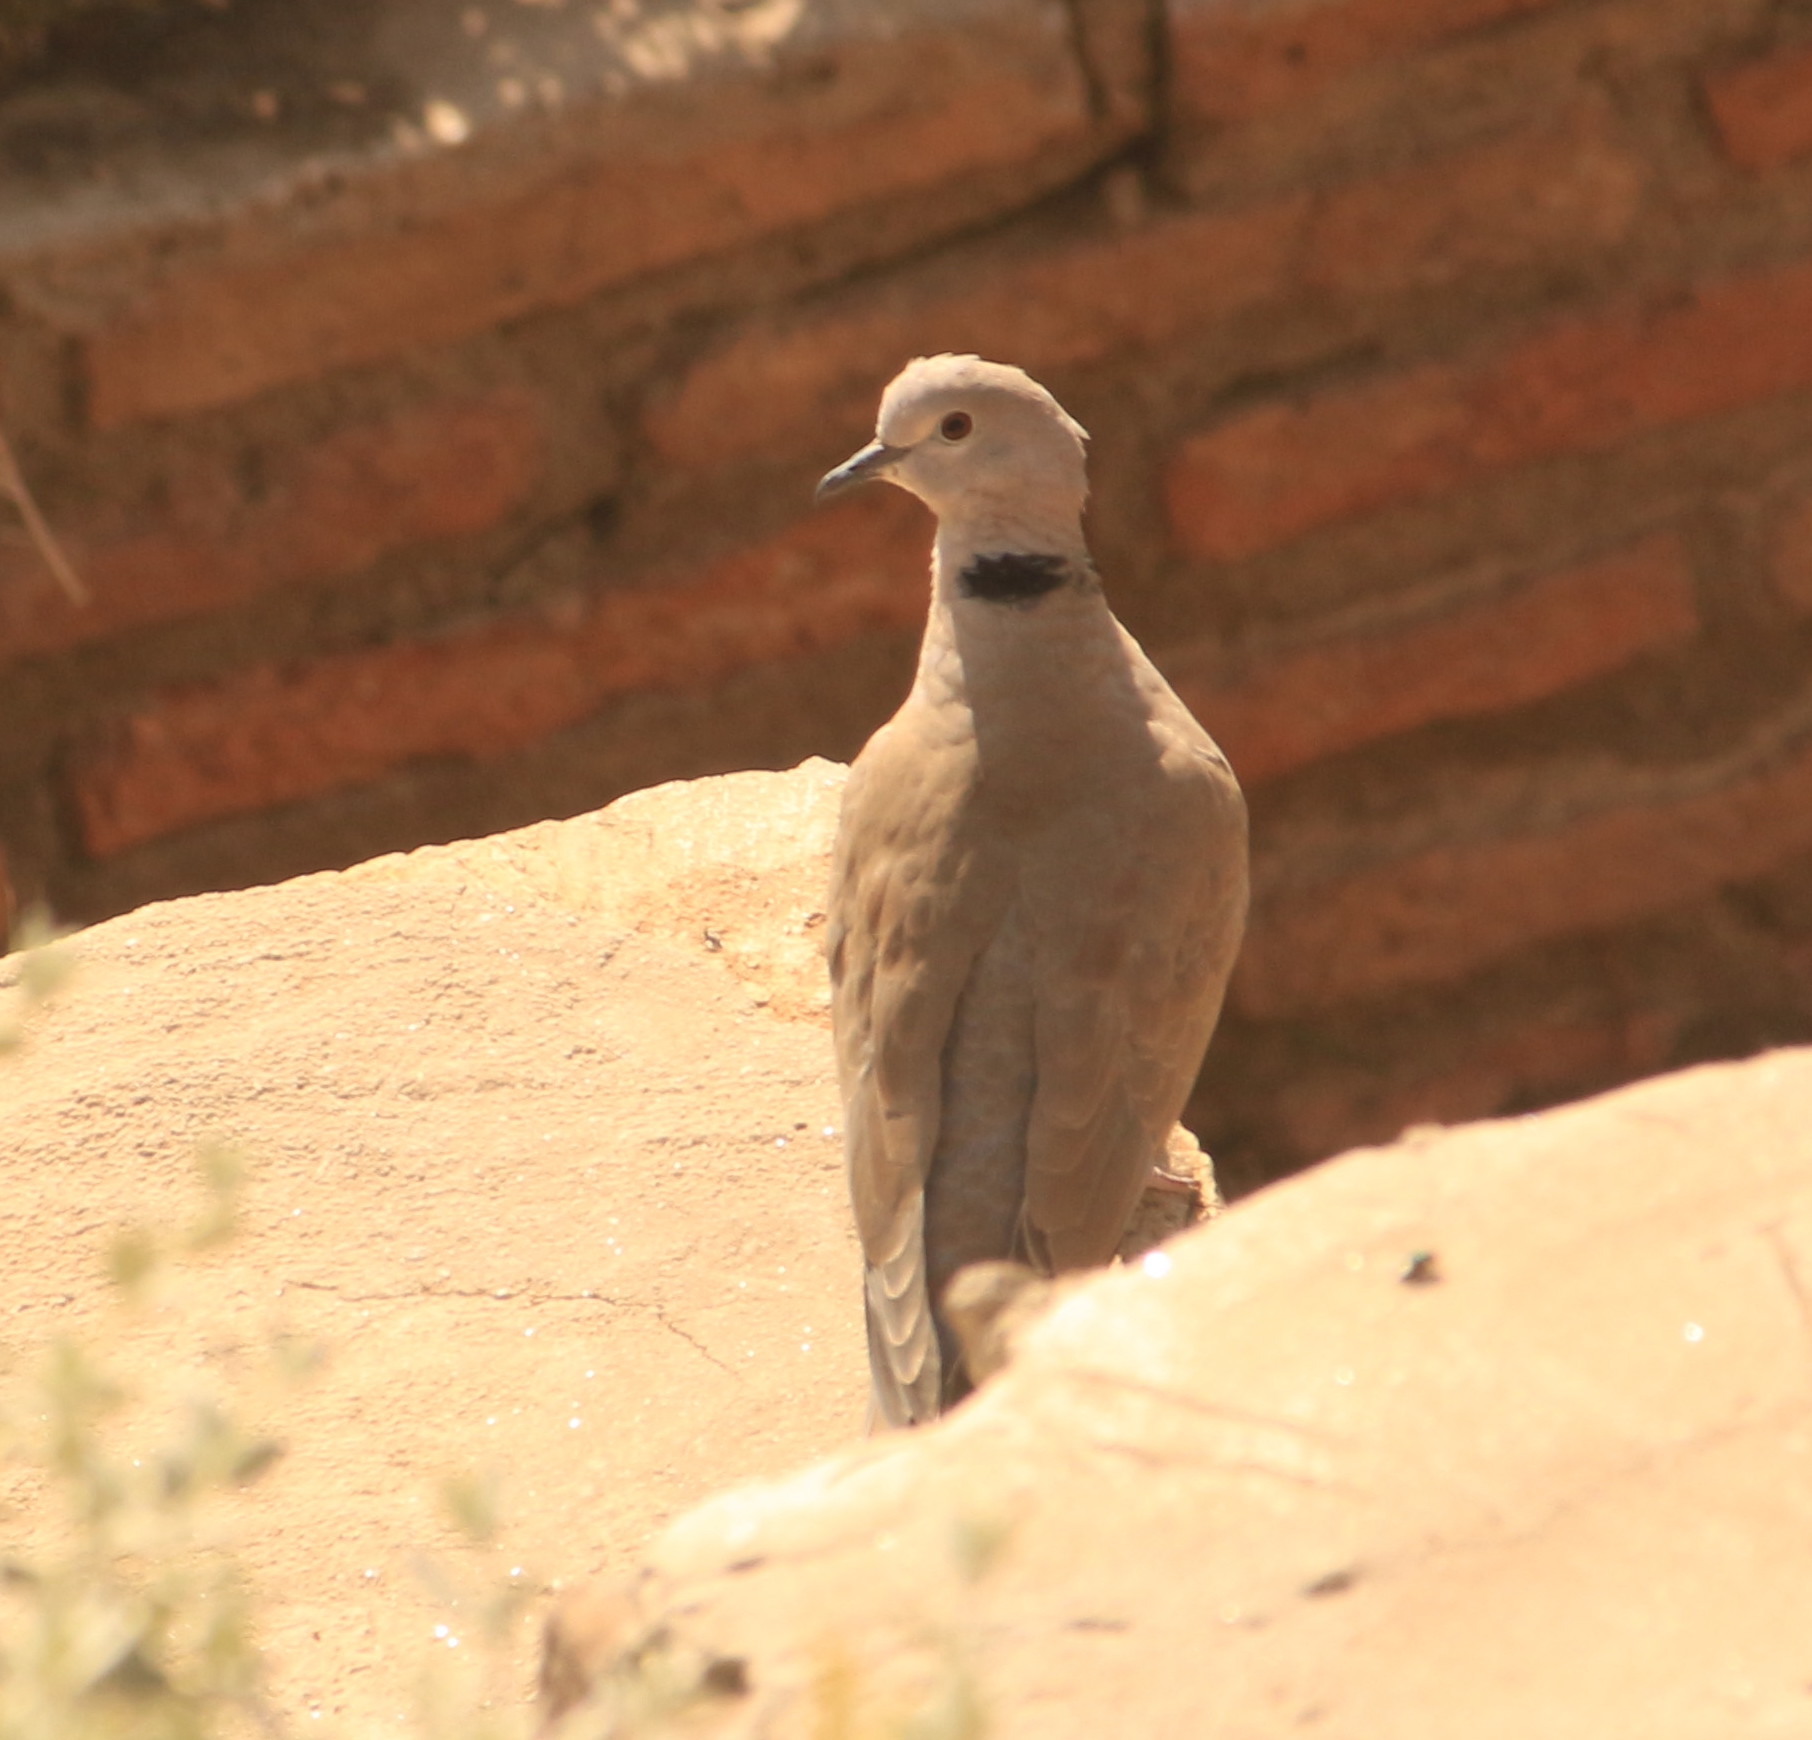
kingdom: Animalia
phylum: Chordata
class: Aves
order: Columbiformes
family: Columbidae
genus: Streptopelia
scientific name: Streptopelia decaocto
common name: Eurasian collared dove
